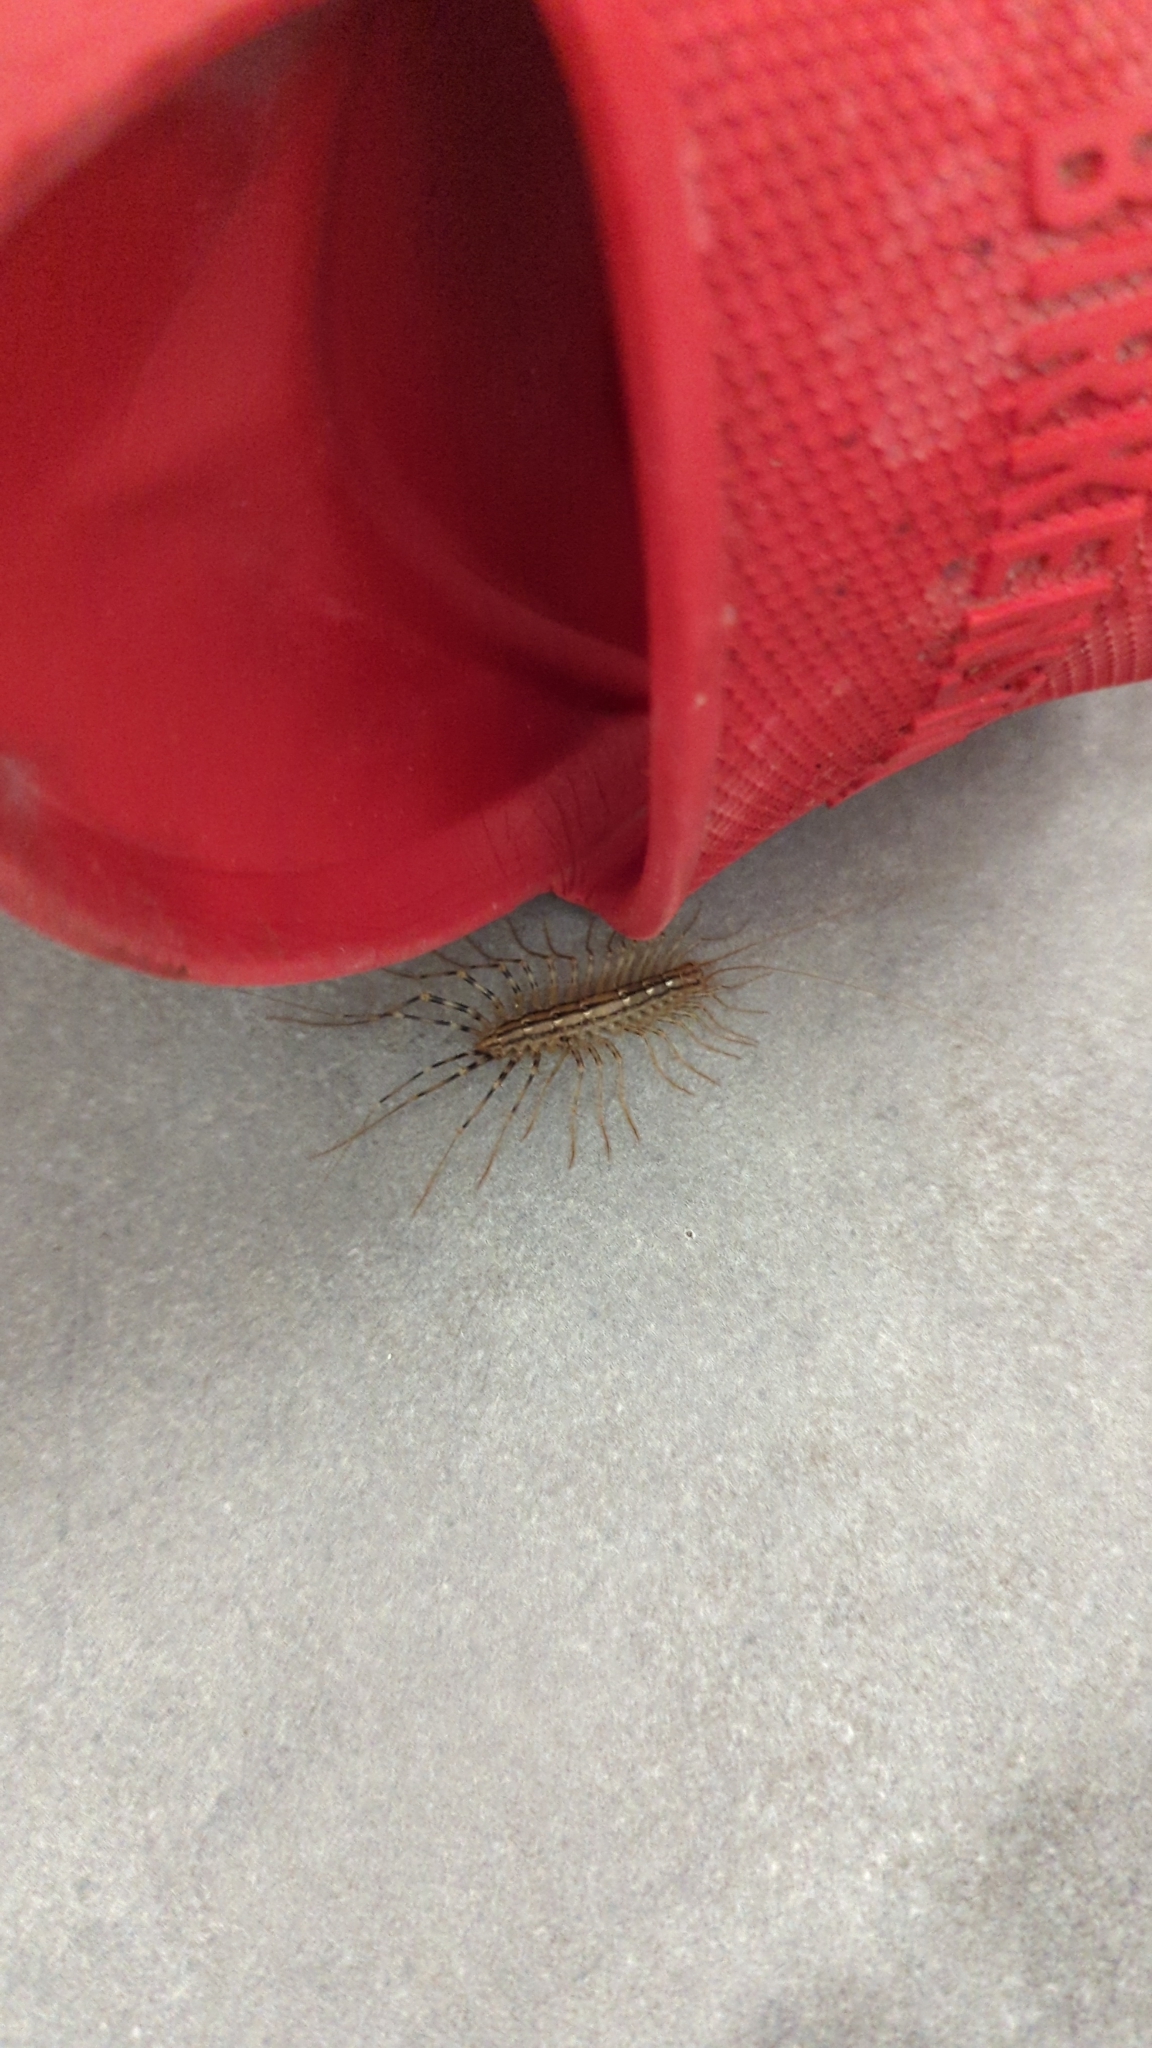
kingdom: Animalia
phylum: Arthropoda
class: Chilopoda
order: Scutigeromorpha
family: Scutigeridae
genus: Scutigera
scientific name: Scutigera coleoptrata
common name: House centipede
